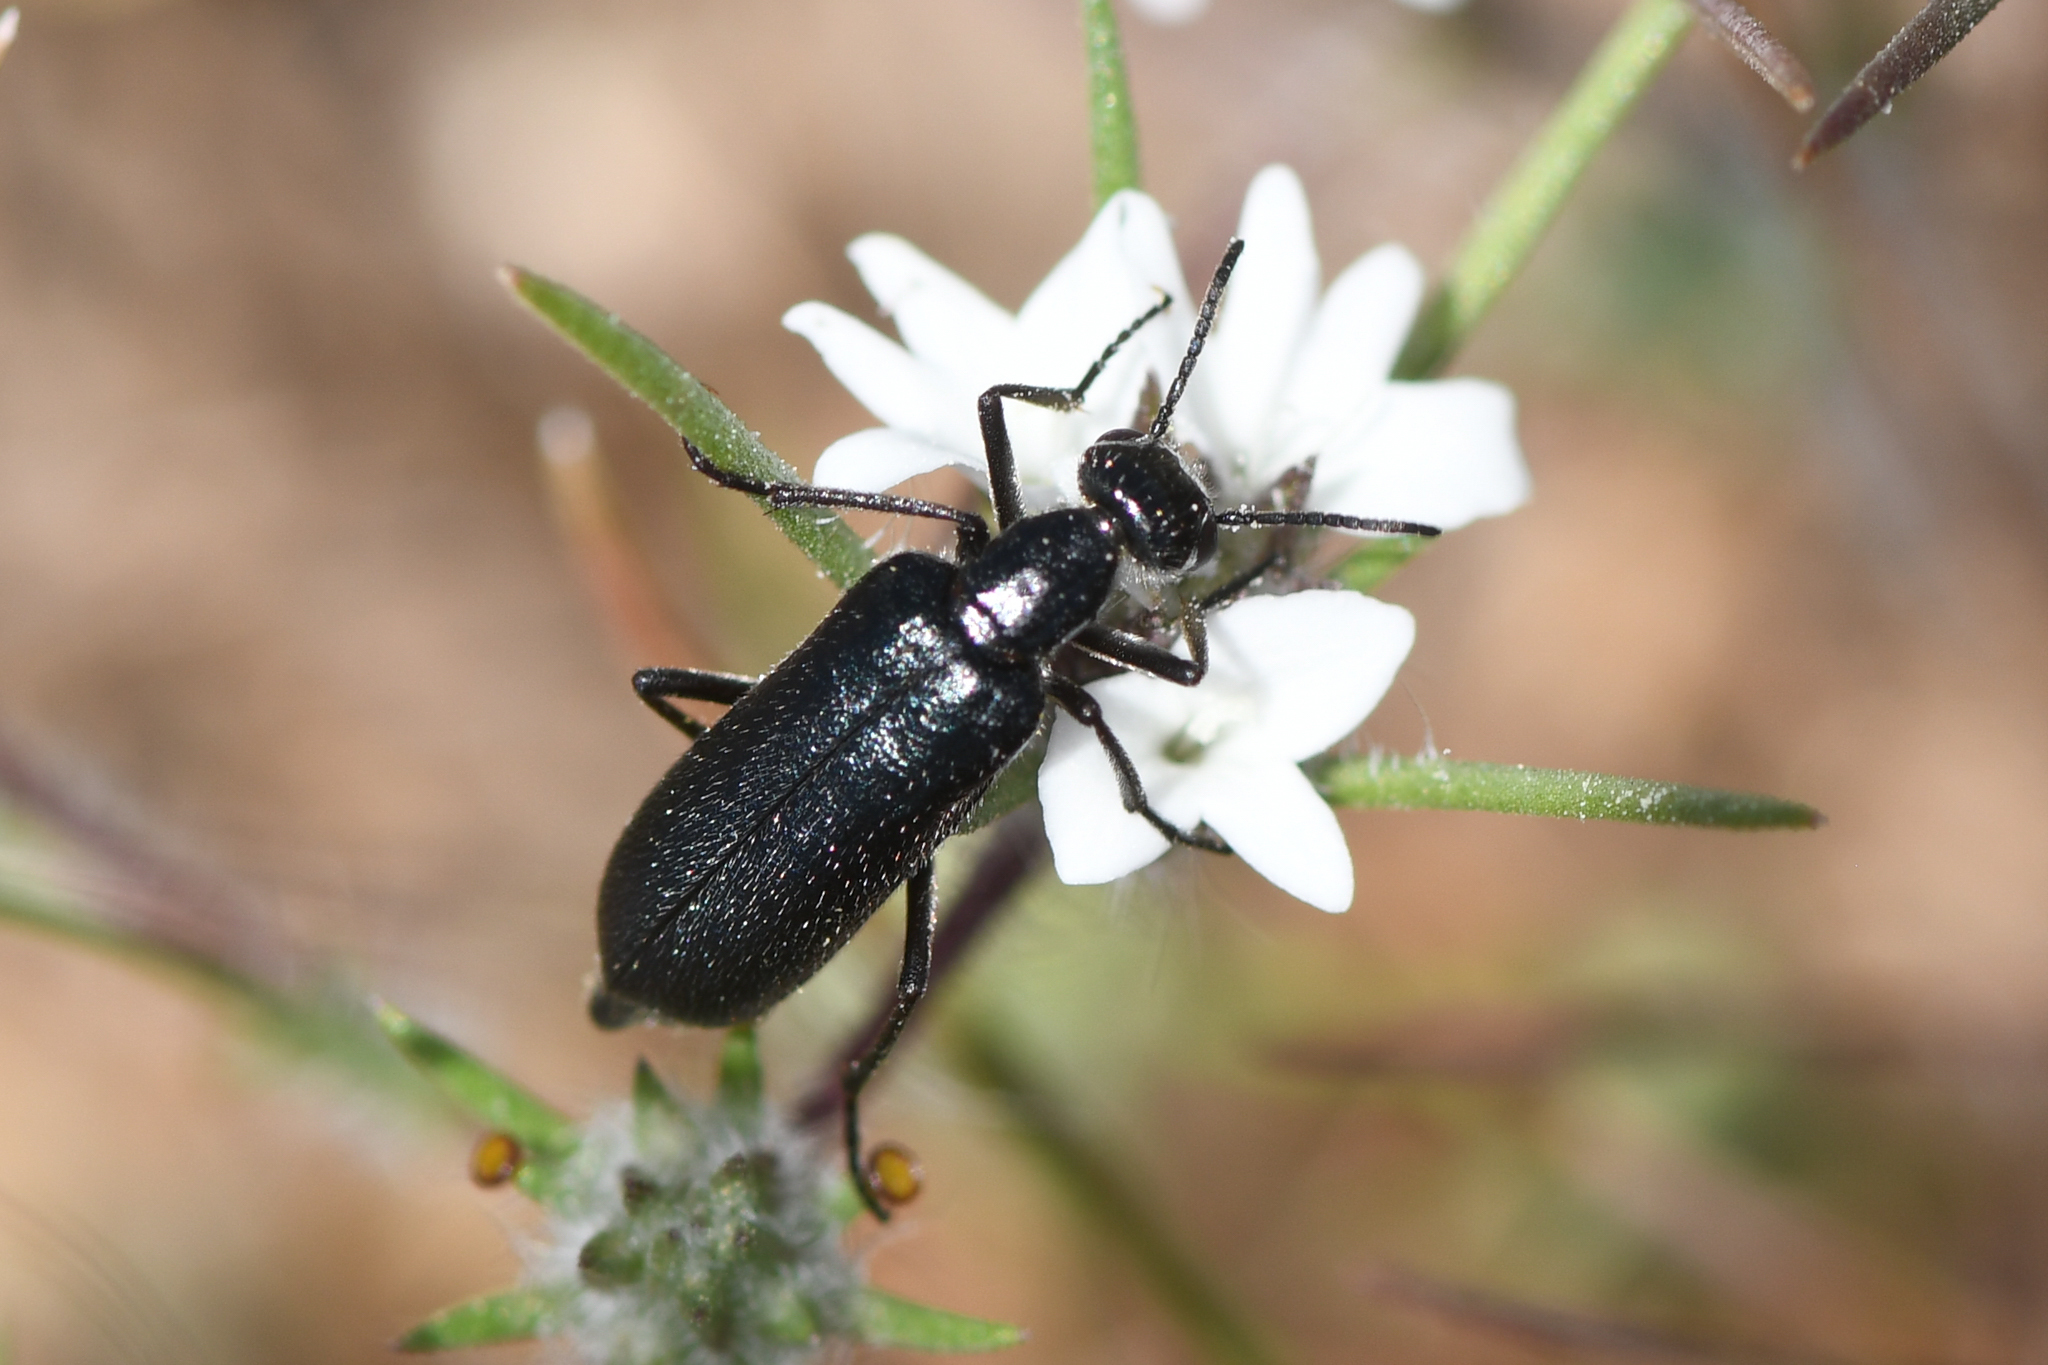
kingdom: Animalia
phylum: Arthropoda
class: Insecta
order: Coleoptera
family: Meloidae
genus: Eupompha
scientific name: Eupompha elegans
